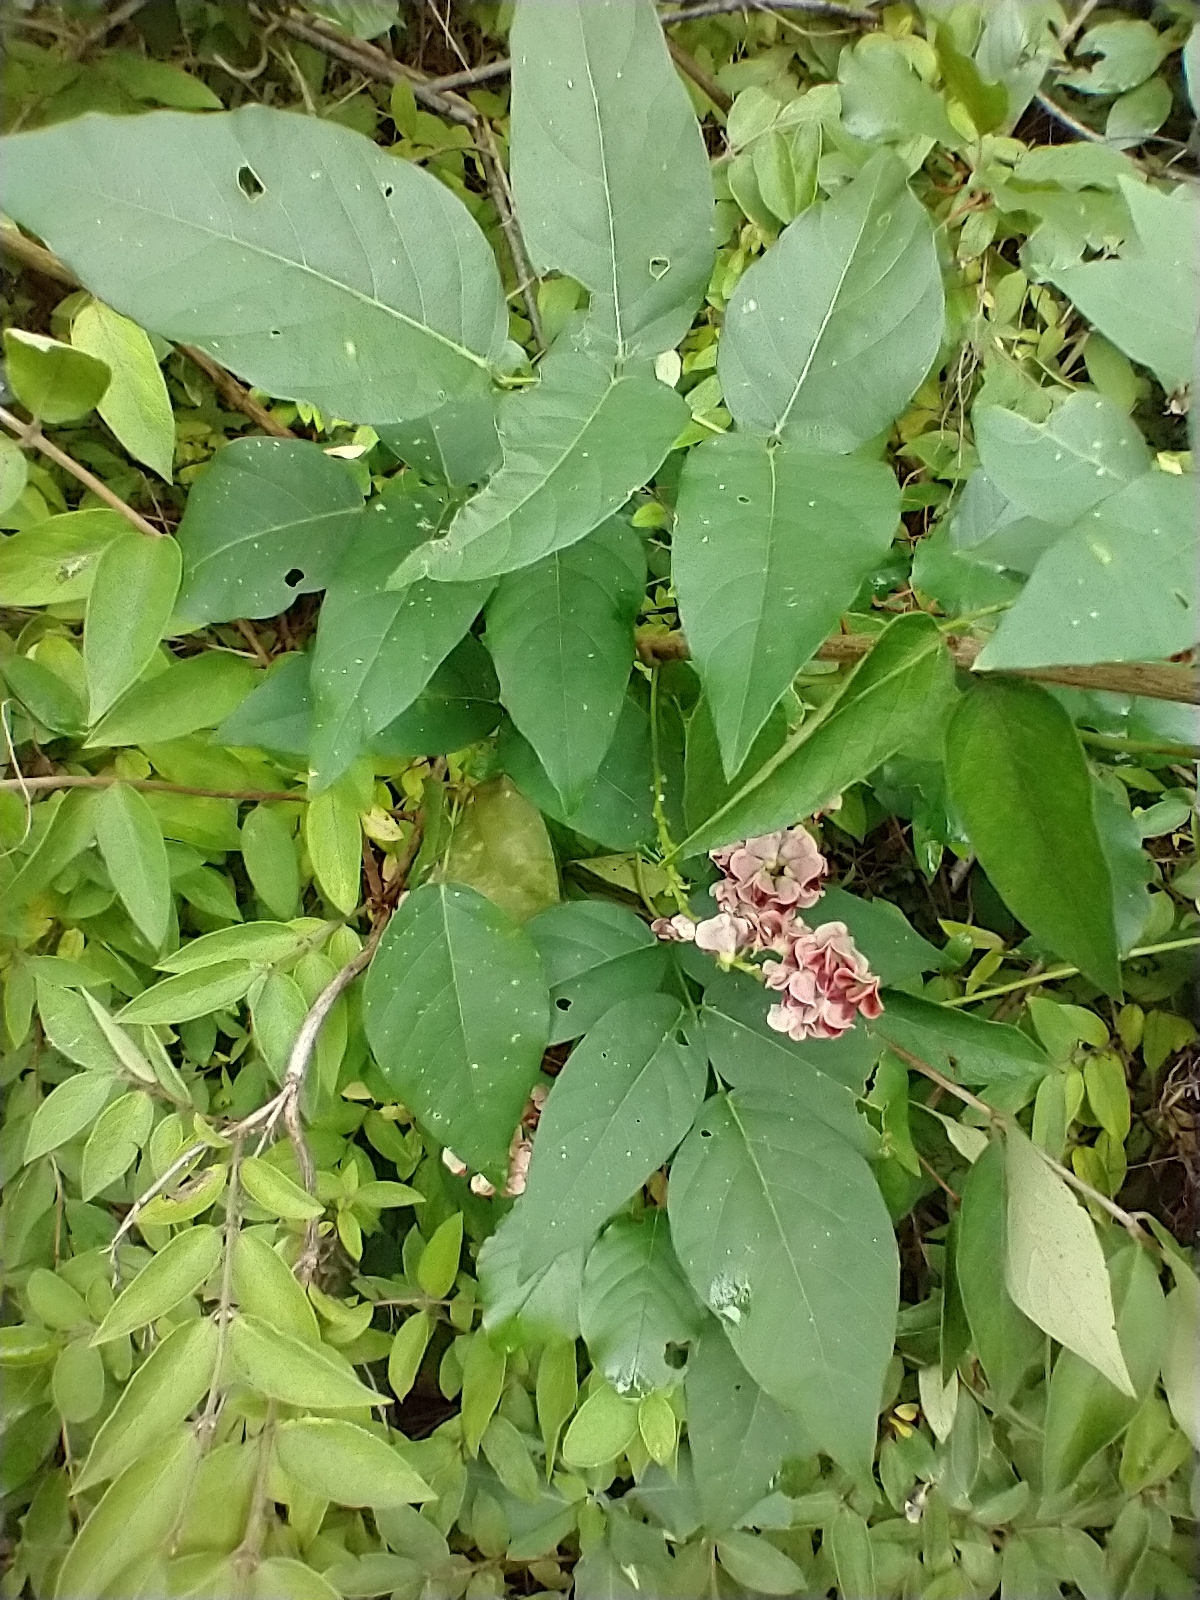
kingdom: Plantae
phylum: Tracheophyta
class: Magnoliopsida
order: Fabales
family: Fabaceae
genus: Apios
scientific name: Apios americana
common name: American potato-bean
